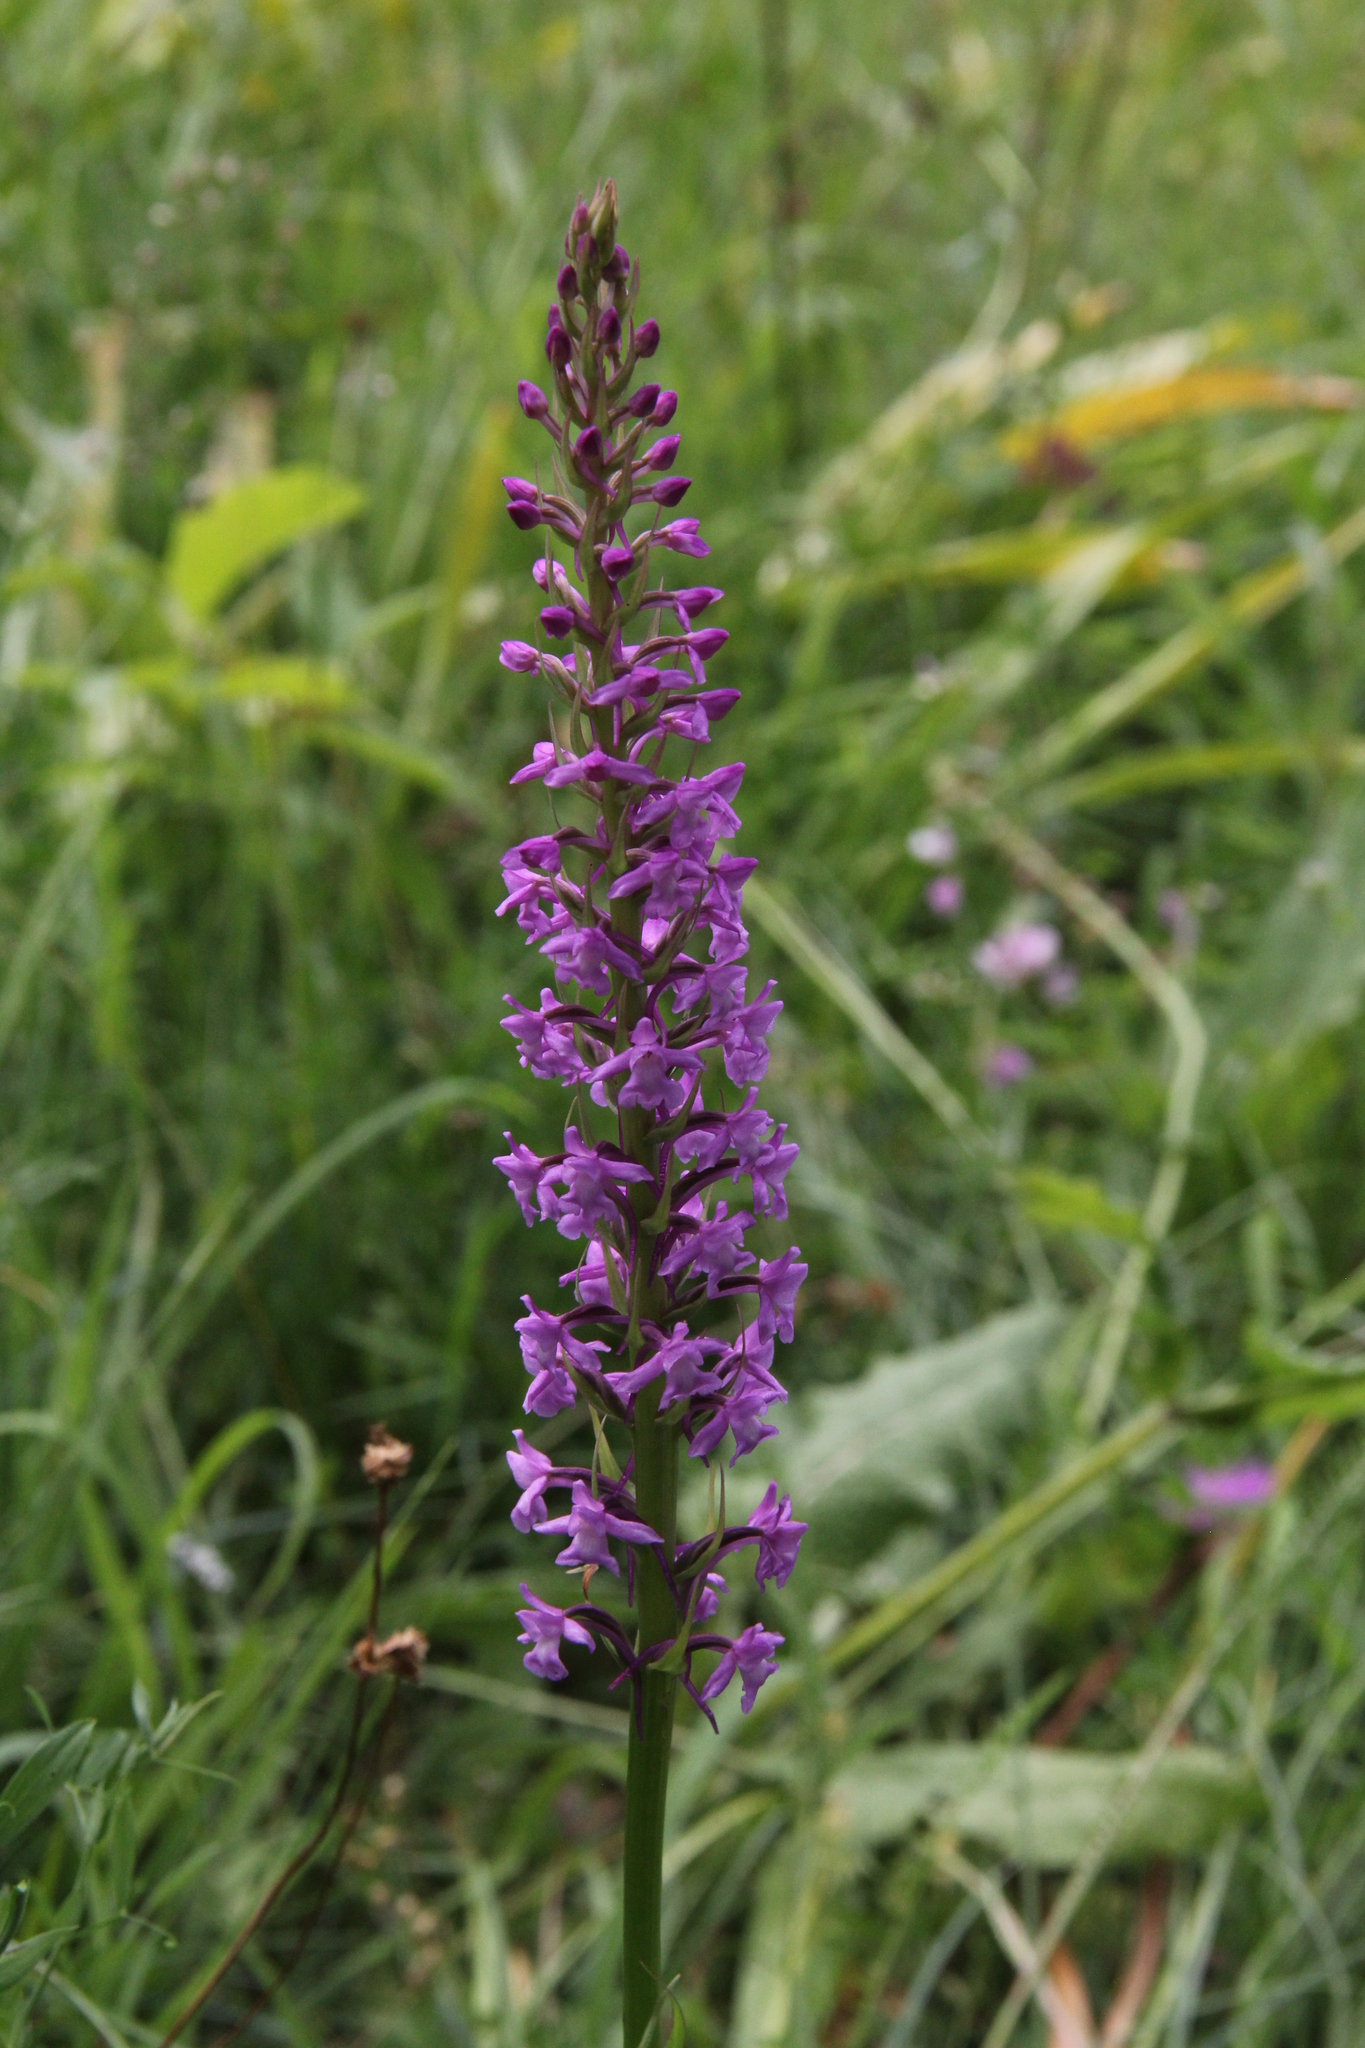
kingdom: Plantae
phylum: Tracheophyta
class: Liliopsida
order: Asparagales
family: Orchidaceae
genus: Gymnadenia
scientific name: Gymnadenia conopsea
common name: Fragrant orchid
